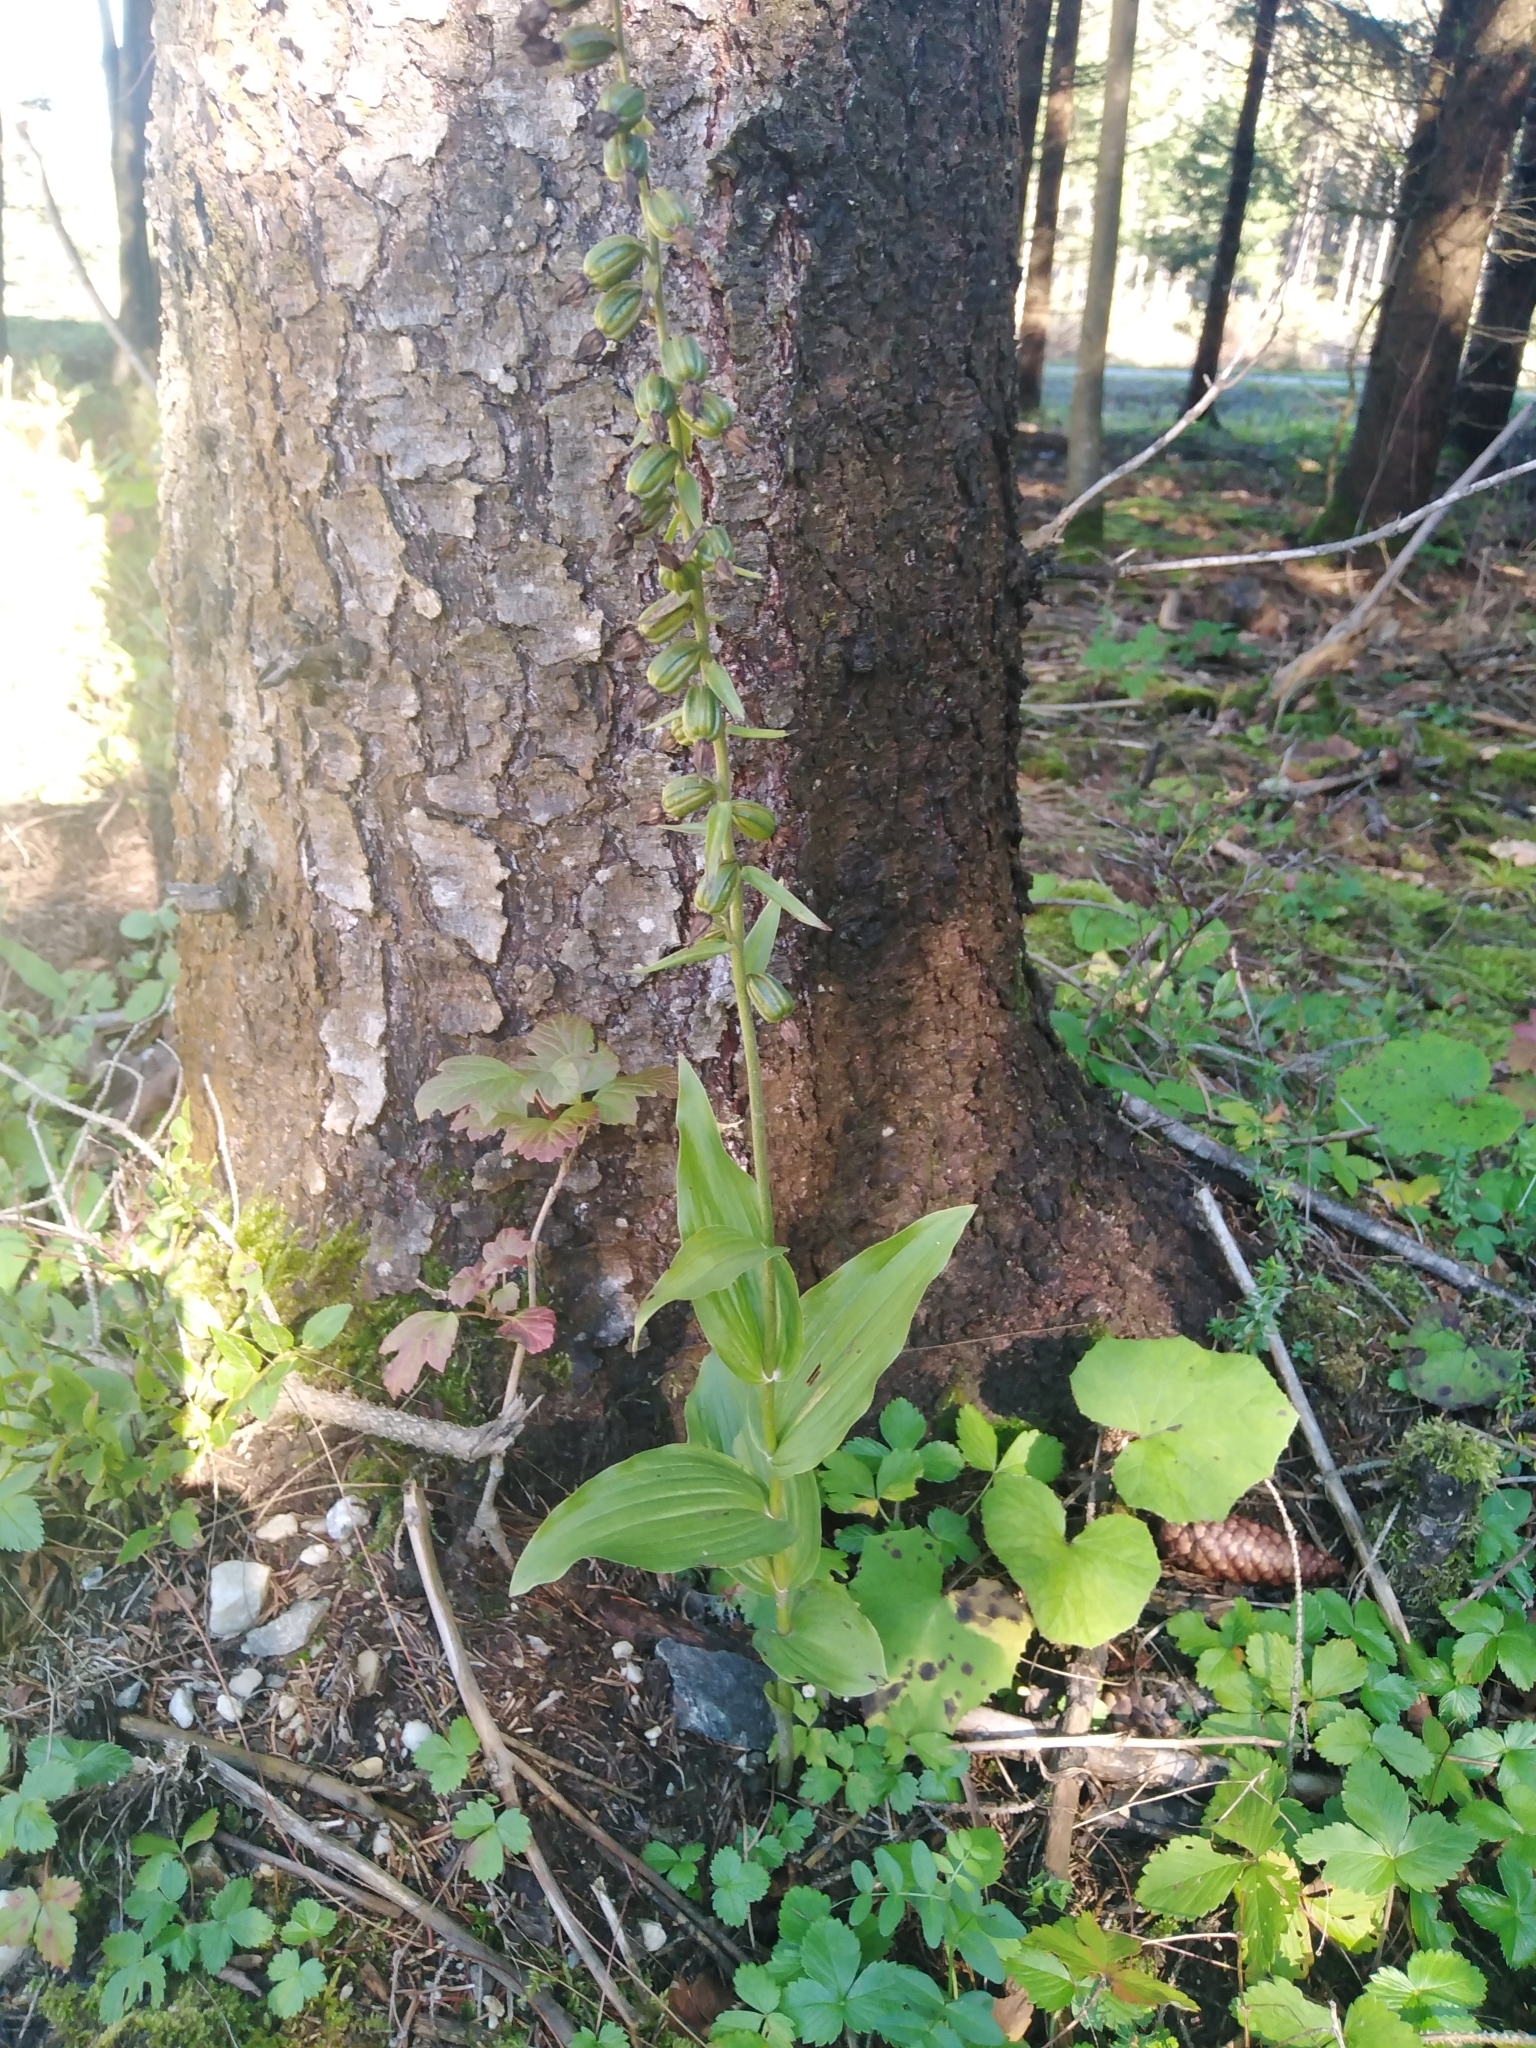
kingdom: Plantae
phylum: Tracheophyta
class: Liliopsida
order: Asparagales
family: Orchidaceae
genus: Epipactis
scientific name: Epipactis helleborine
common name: Broad-leaved helleborine
